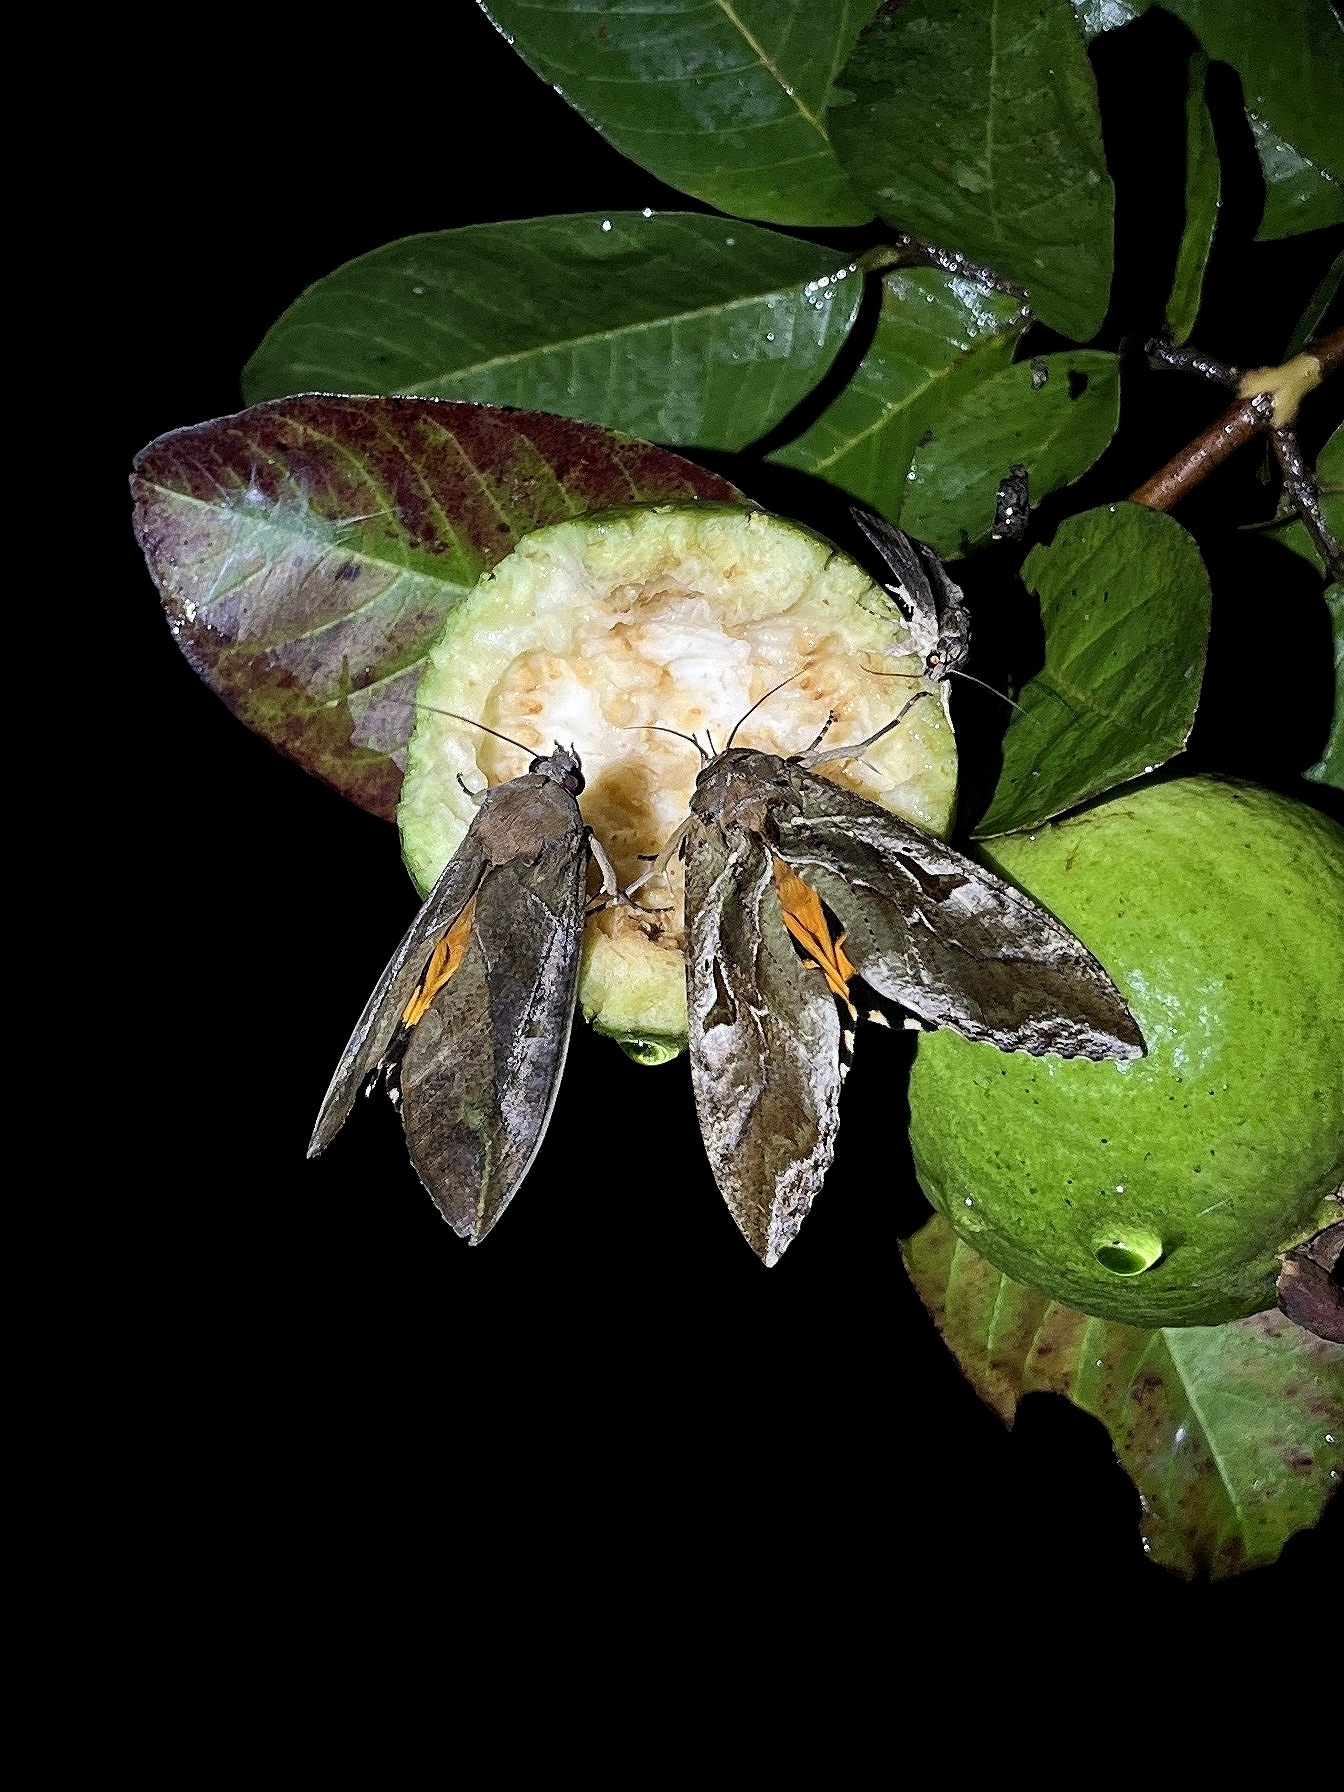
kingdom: Animalia
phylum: Arthropoda
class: Insecta
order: Lepidoptera
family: Erebidae
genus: Eudocima
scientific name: Eudocima phalonia
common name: Wasp
